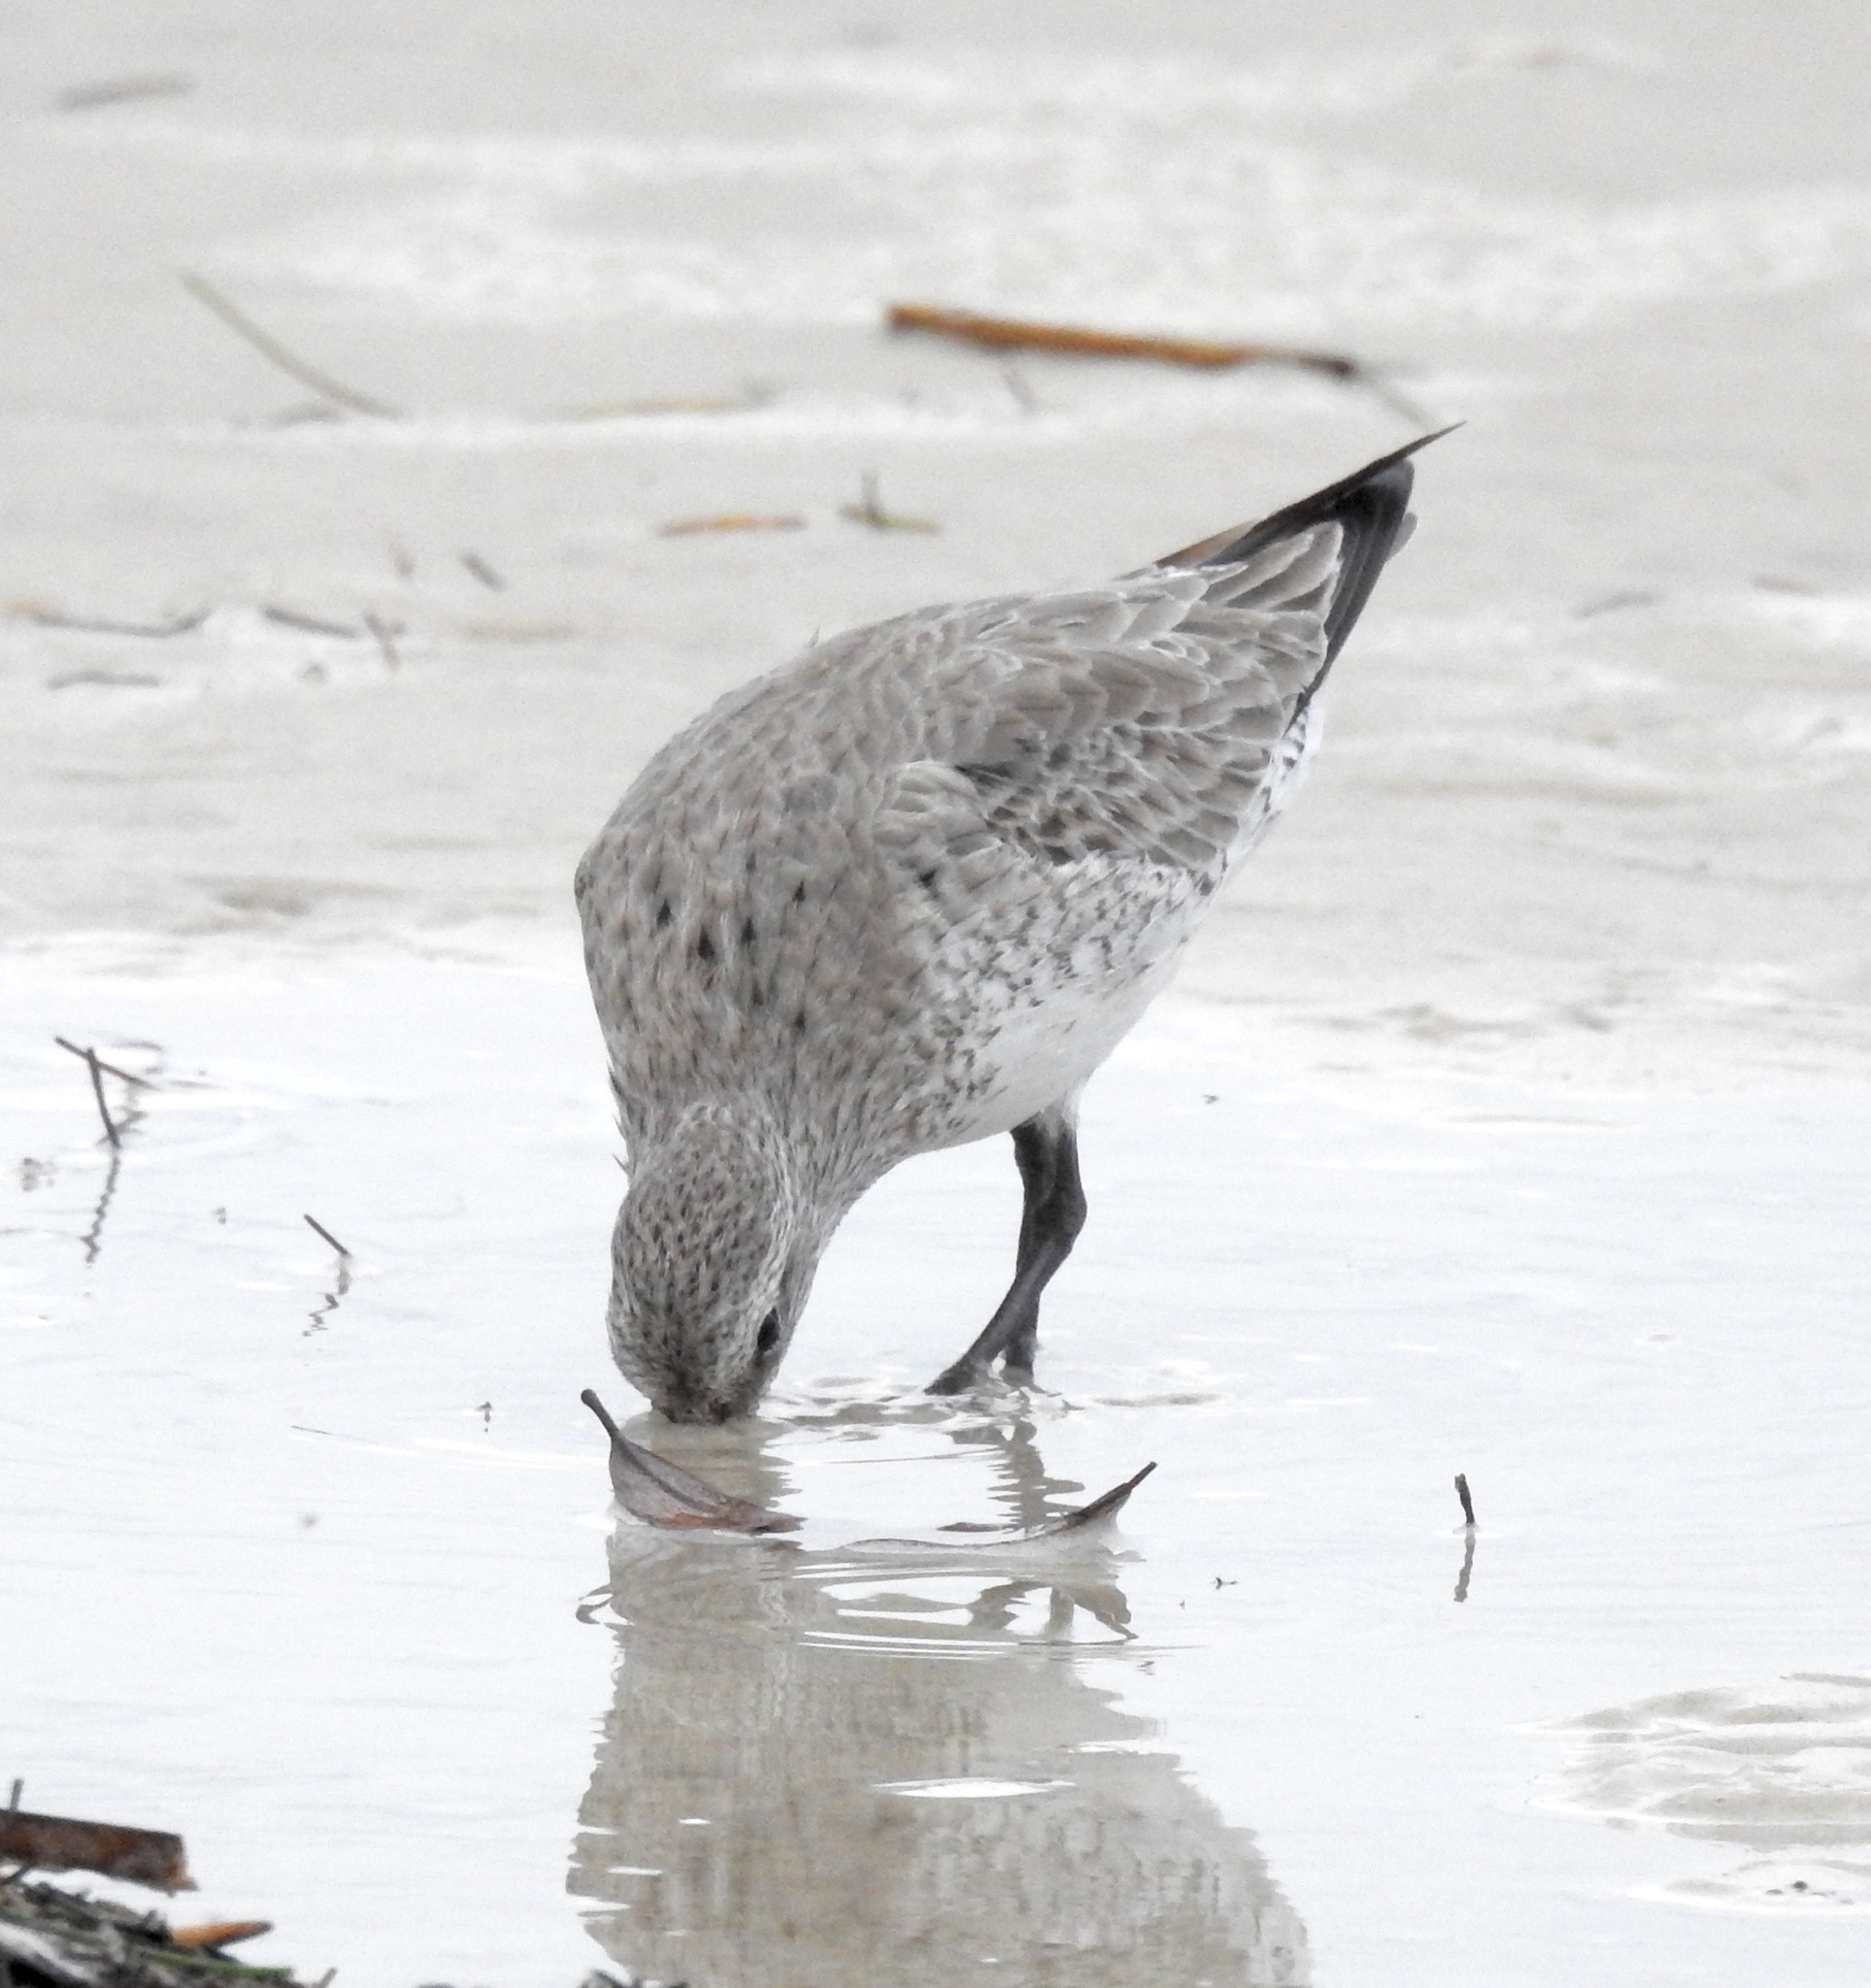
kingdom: Animalia
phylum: Chordata
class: Aves
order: Charadriiformes
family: Scolopacidae
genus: Calidris
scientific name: Calidris canutus
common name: Red knot
